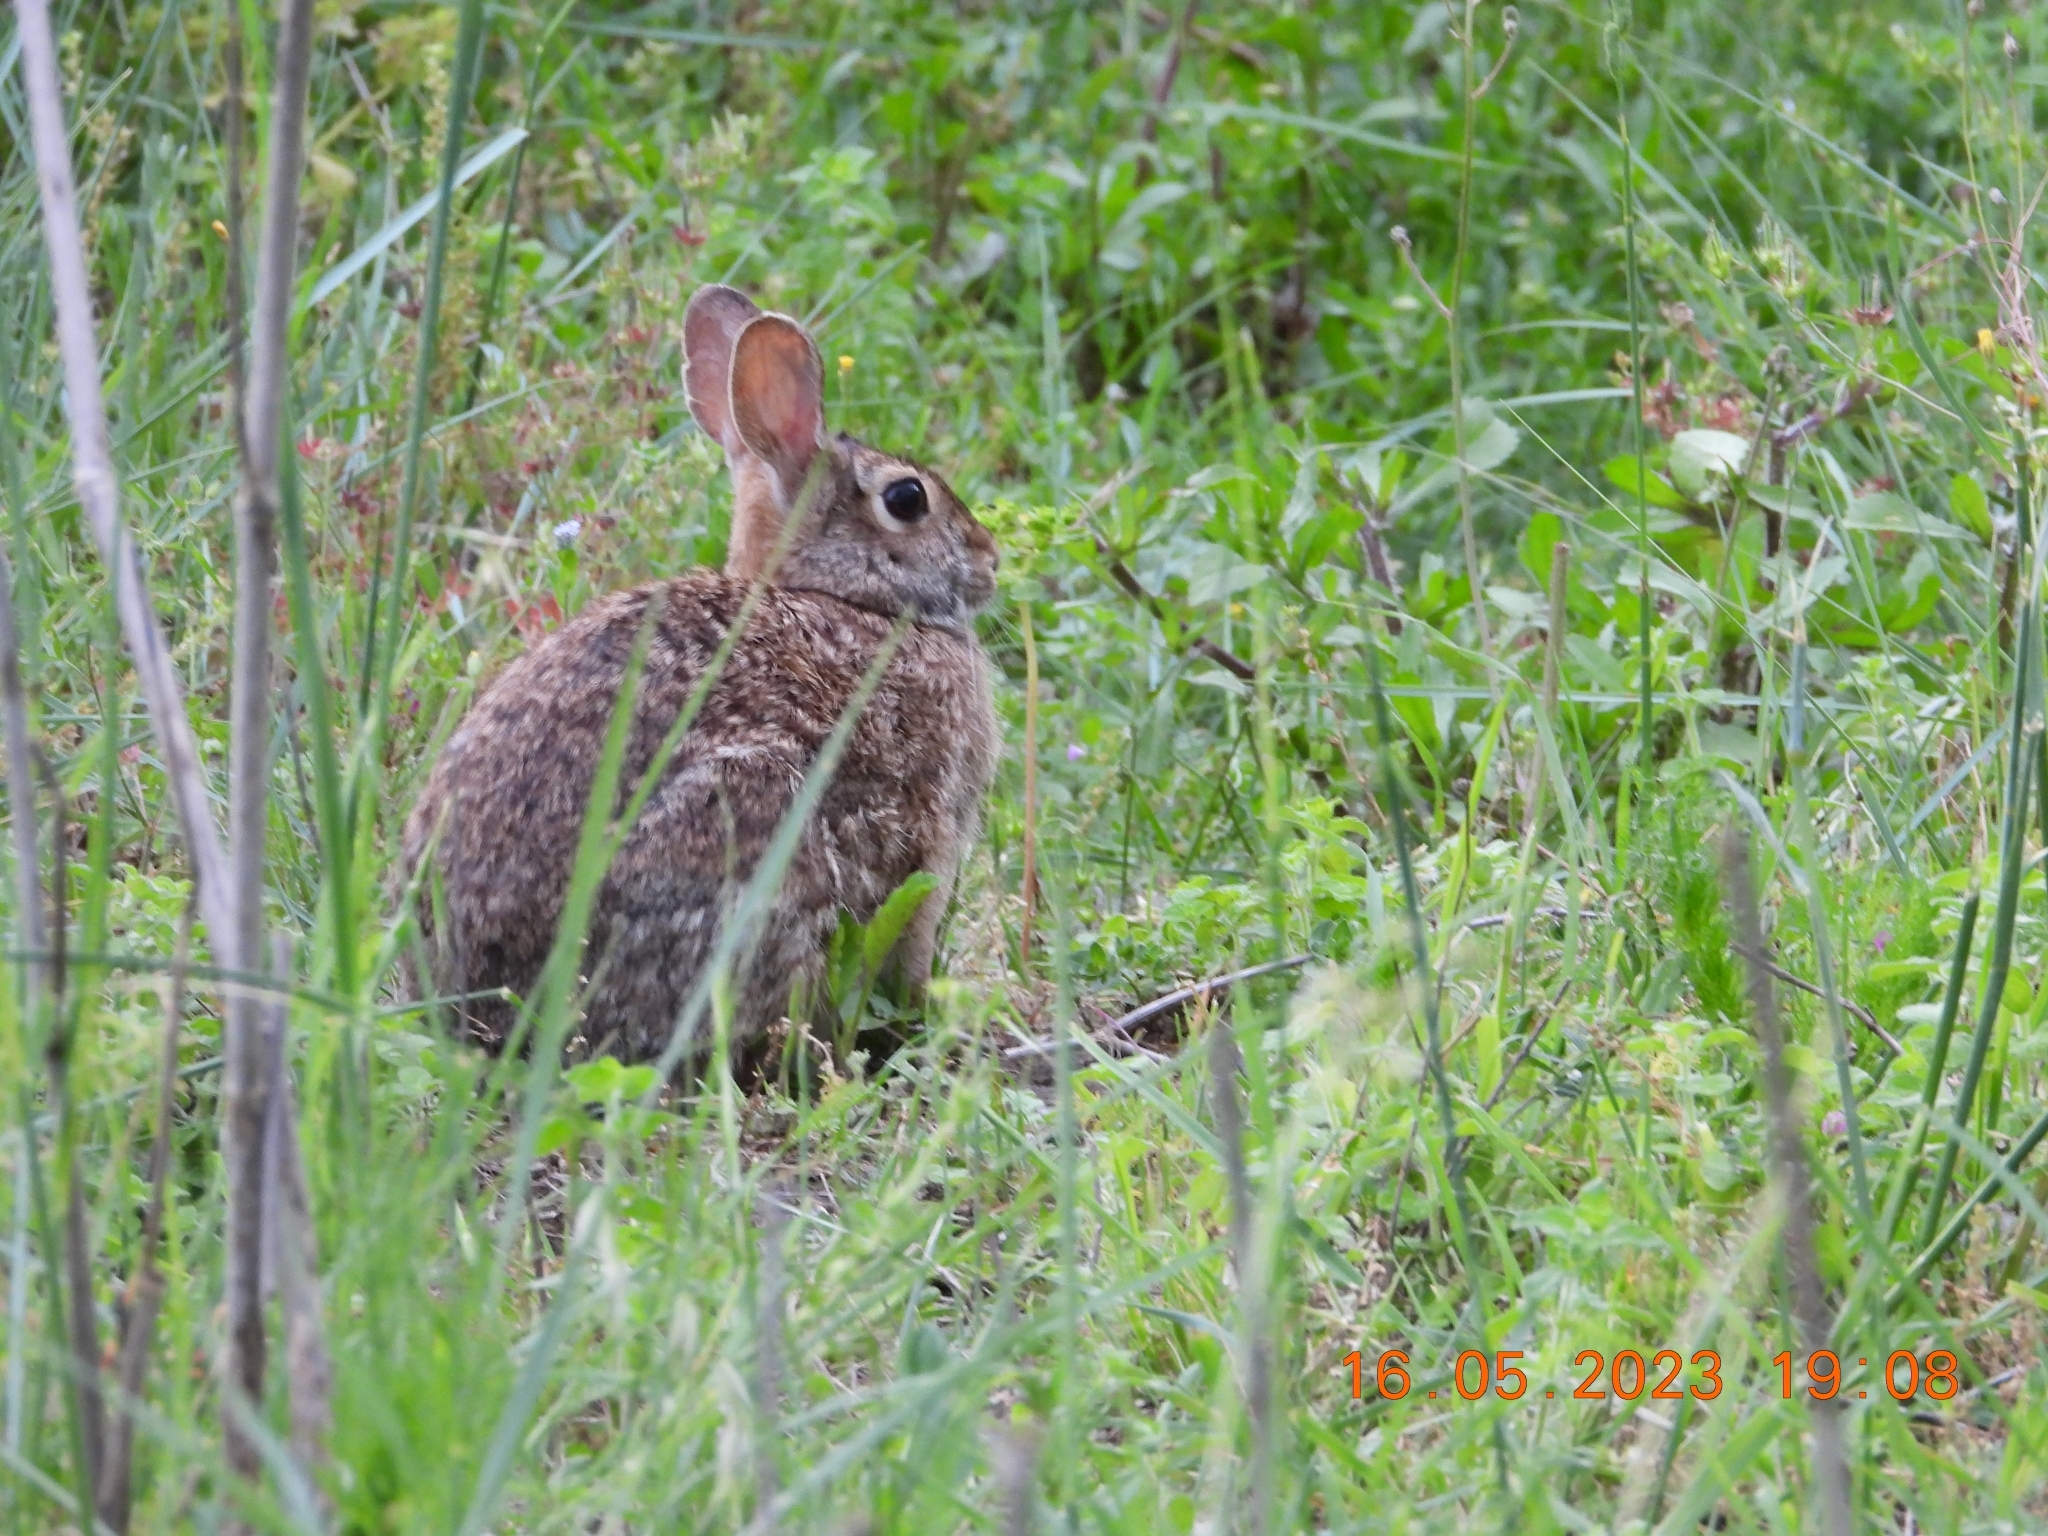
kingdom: Animalia
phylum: Chordata
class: Mammalia
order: Lagomorpha
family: Leporidae
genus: Sylvilagus
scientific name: Sylvilagus floridanus
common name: Eastern cottontail
